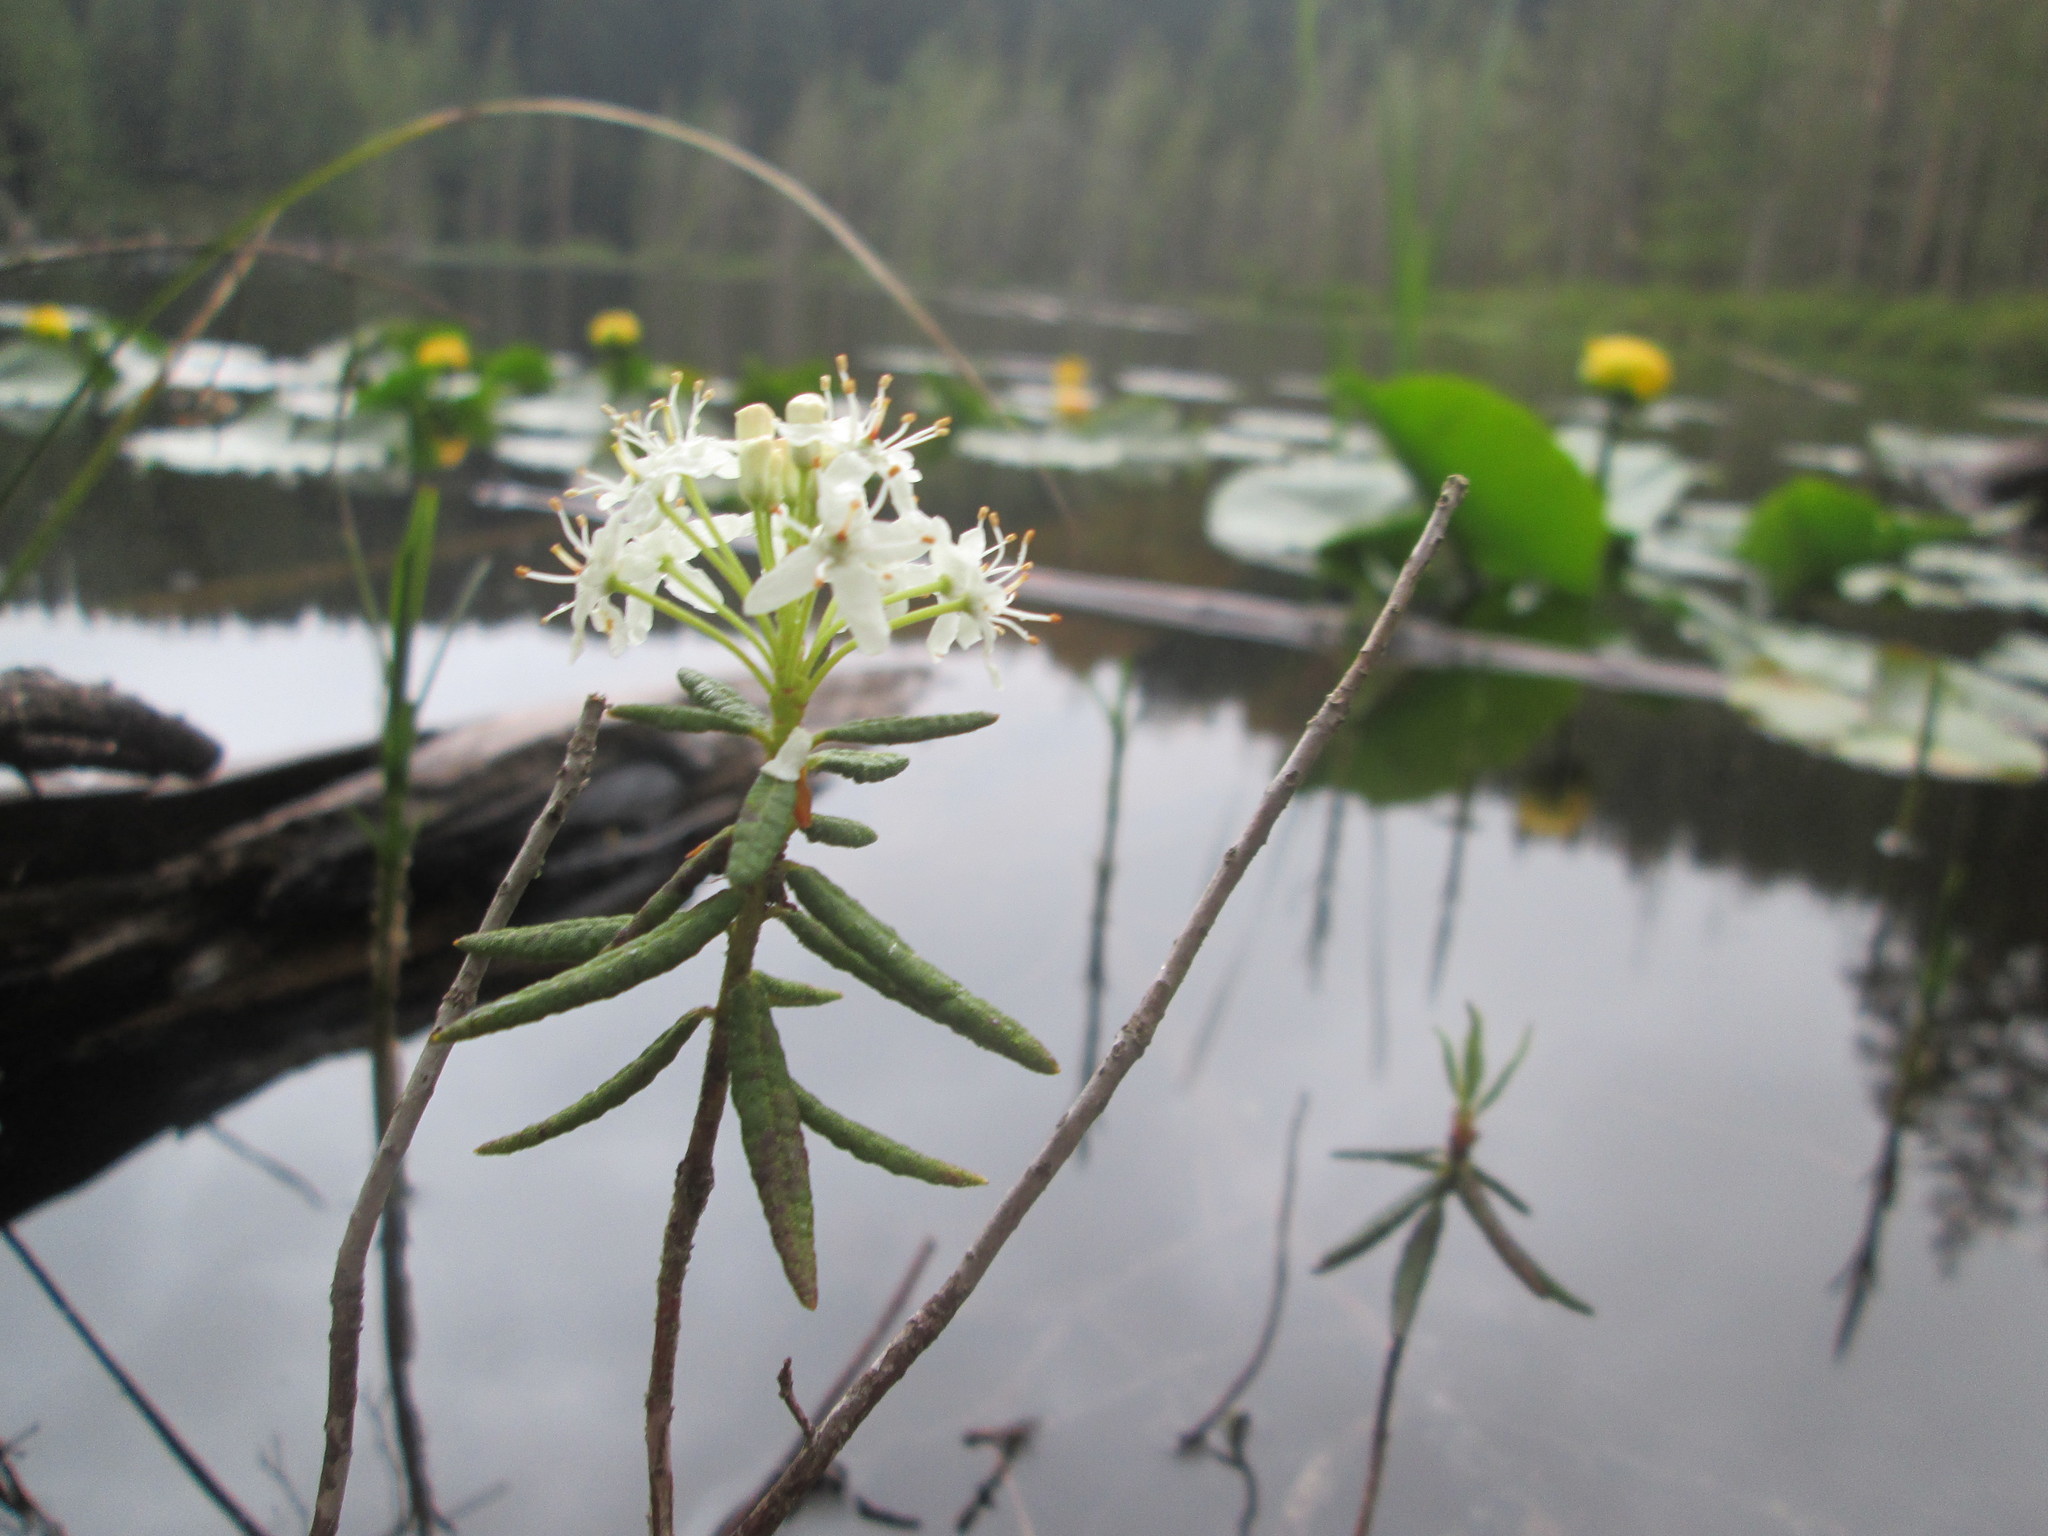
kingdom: Plantae
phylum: Tracheophyta
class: Magnoliopsida
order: Ericales
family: Ericaceae
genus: Rhododendron
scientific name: Rhododendron groenlandicum
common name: Bog labrador tea
